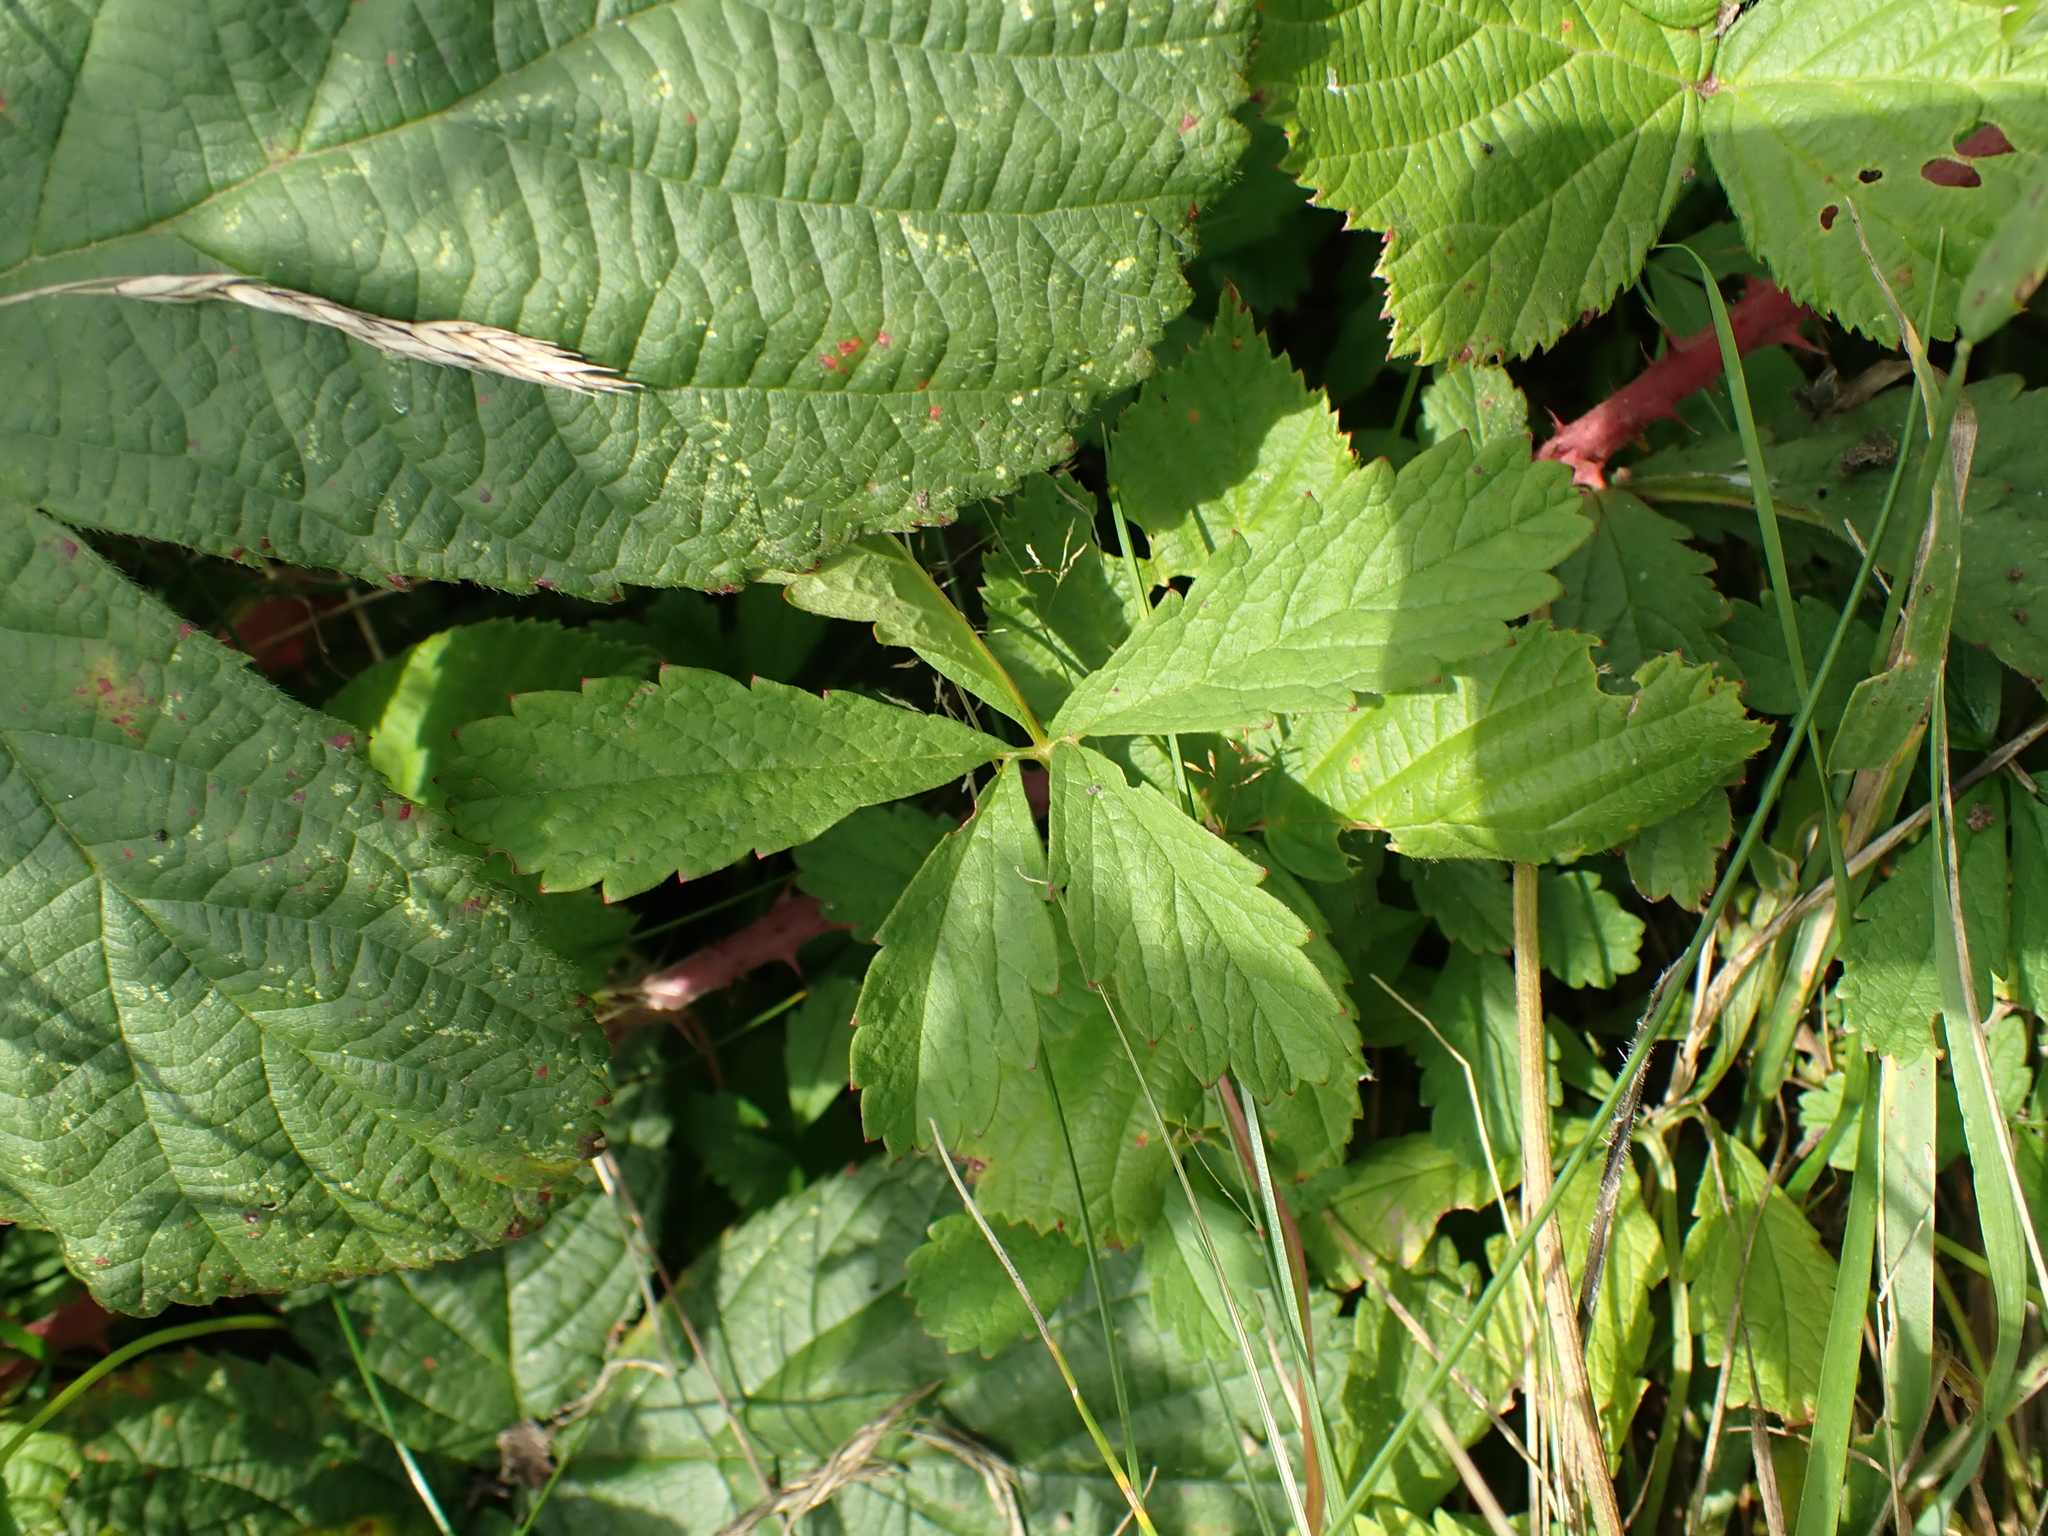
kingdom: Plantae
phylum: Tracheophyta
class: Magnoliopsida
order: Rosales
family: Rosaceae
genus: Potentilla
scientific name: Potentilla reptans
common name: Creeping cinquefoil
